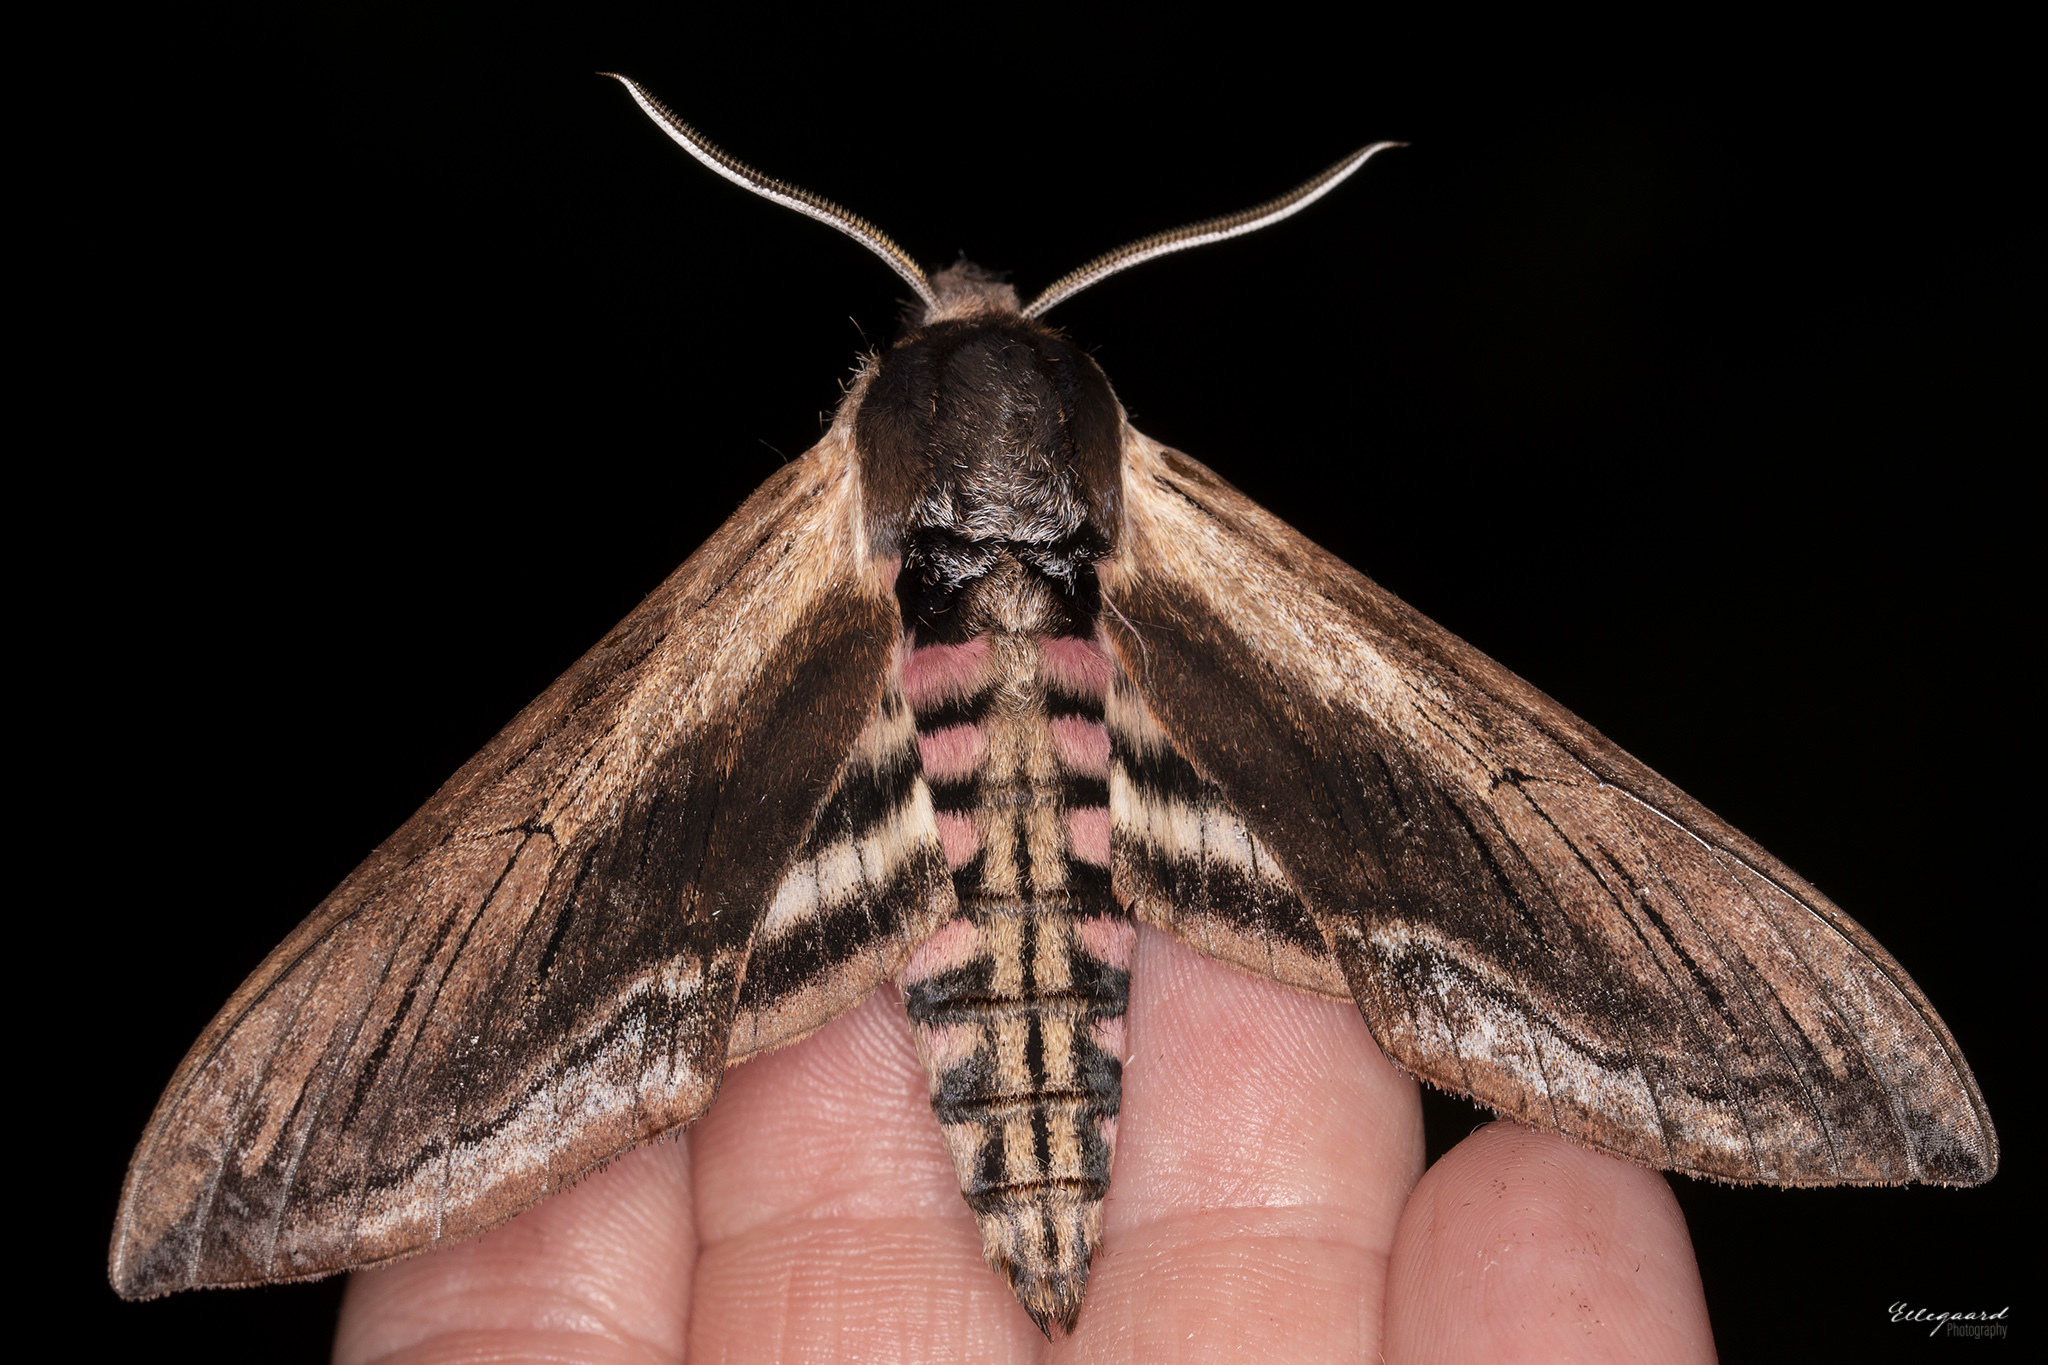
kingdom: Animalia
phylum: Arthropoda
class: Insecta
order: Lepidoptera
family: Sphingidae
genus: Sphinx
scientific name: Sphinx ligustri
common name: Privet hawk-moth
